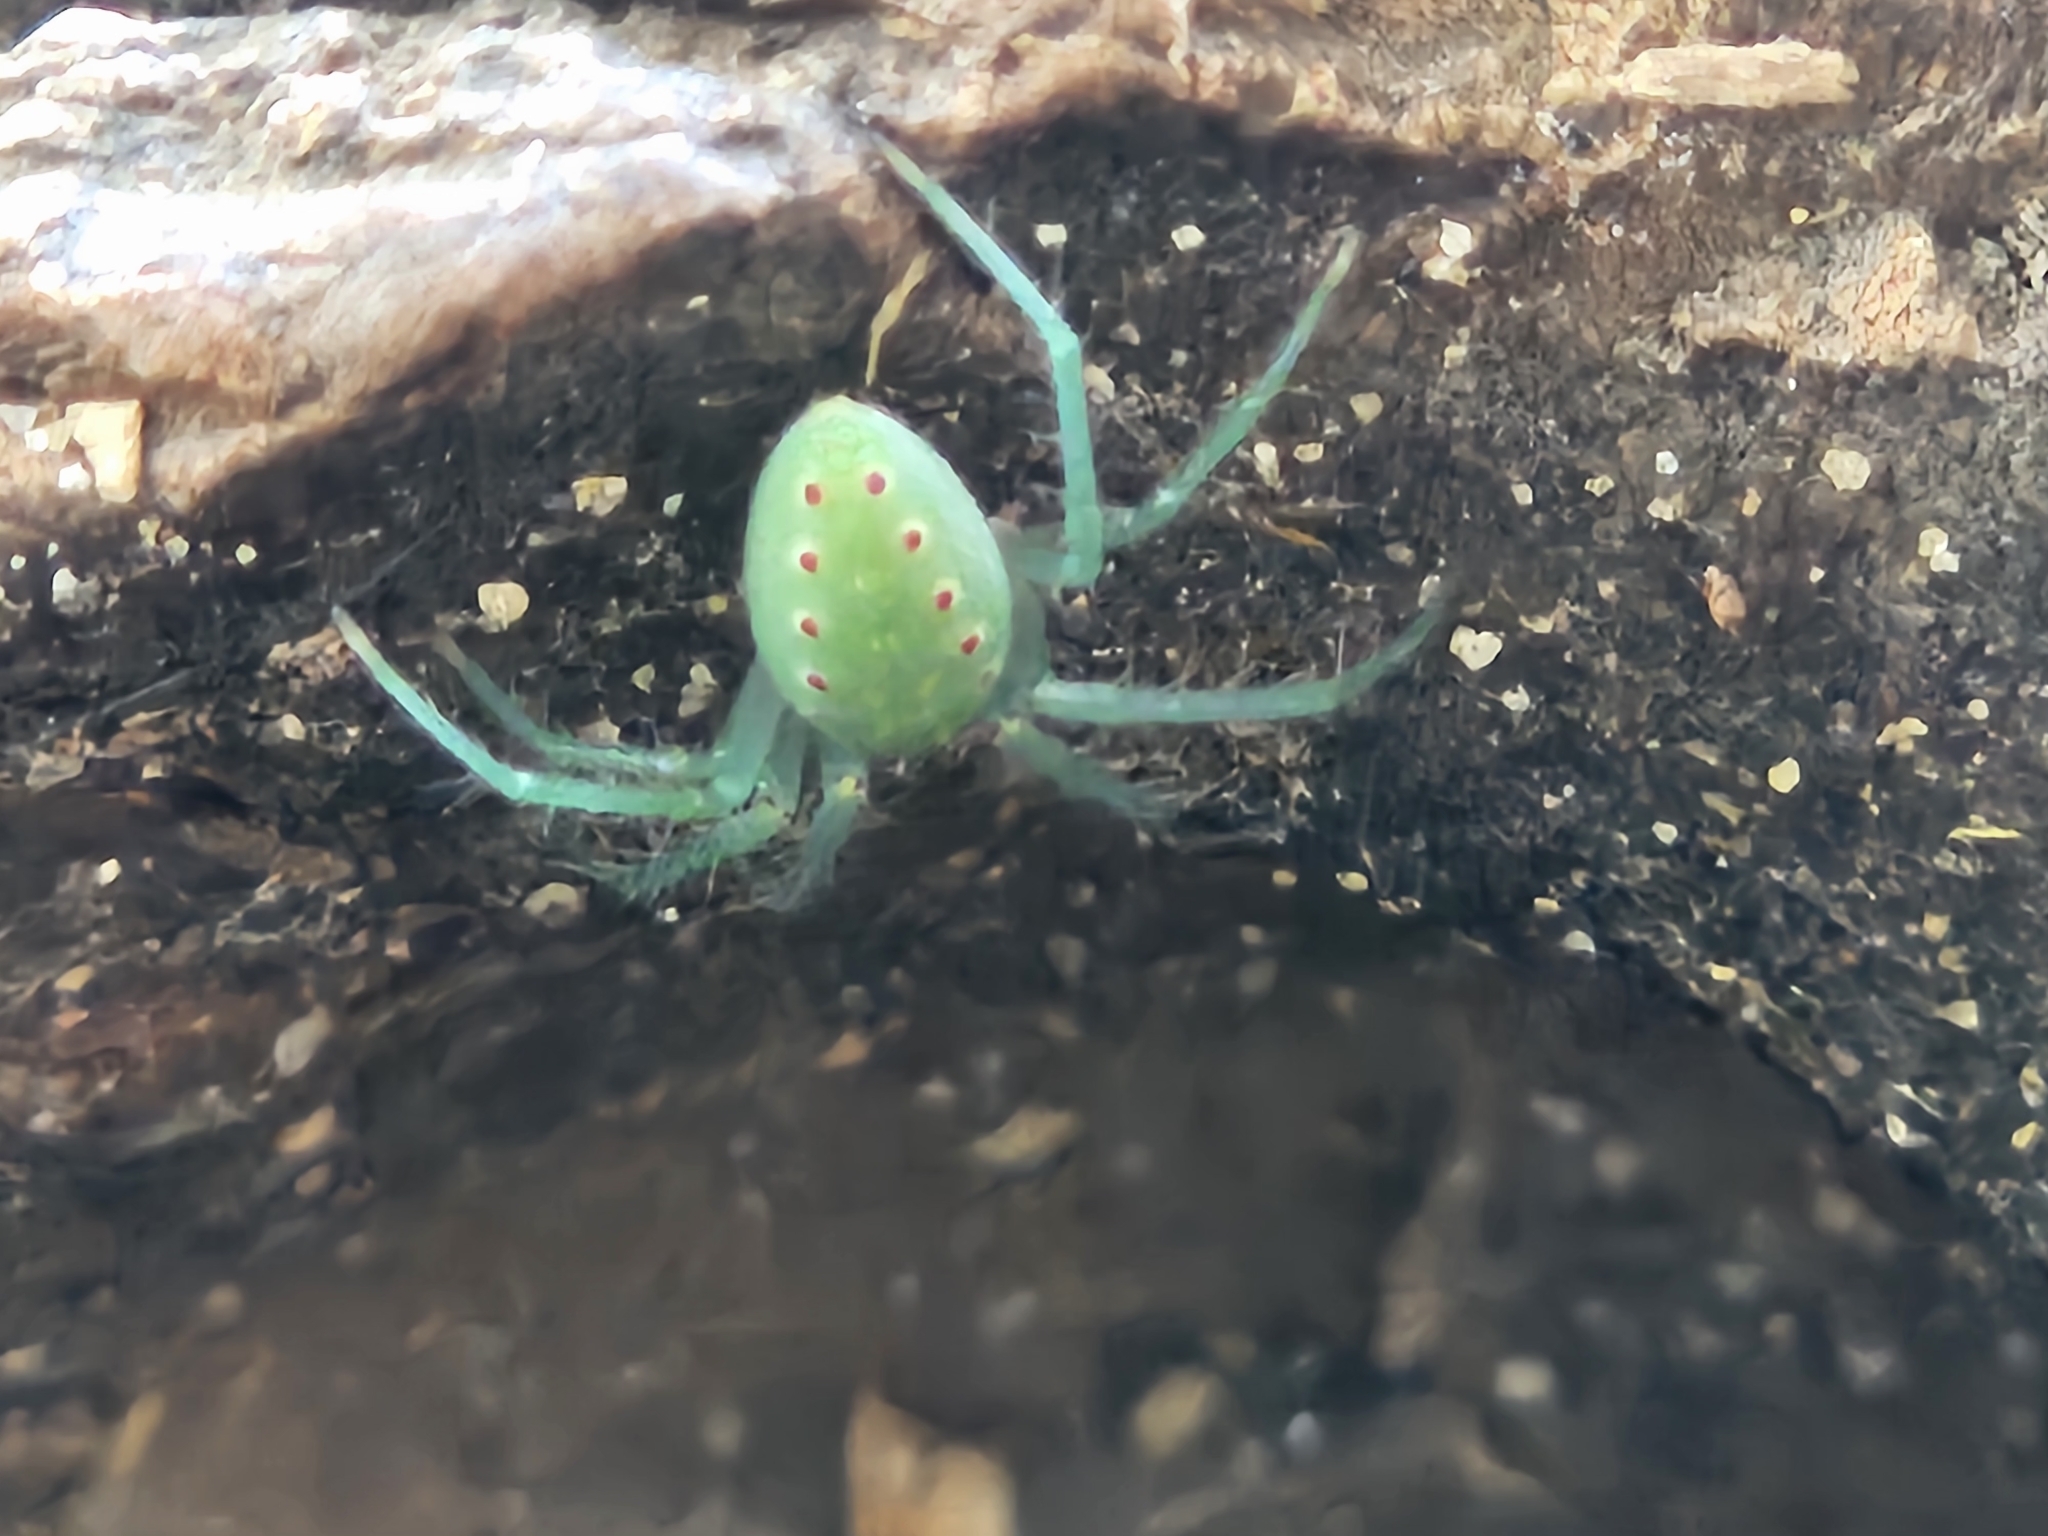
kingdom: Animalia
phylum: Arthropoda
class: Arachnida
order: Araneae
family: Araneidae
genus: Araneus
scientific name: Araneus talipedatus
